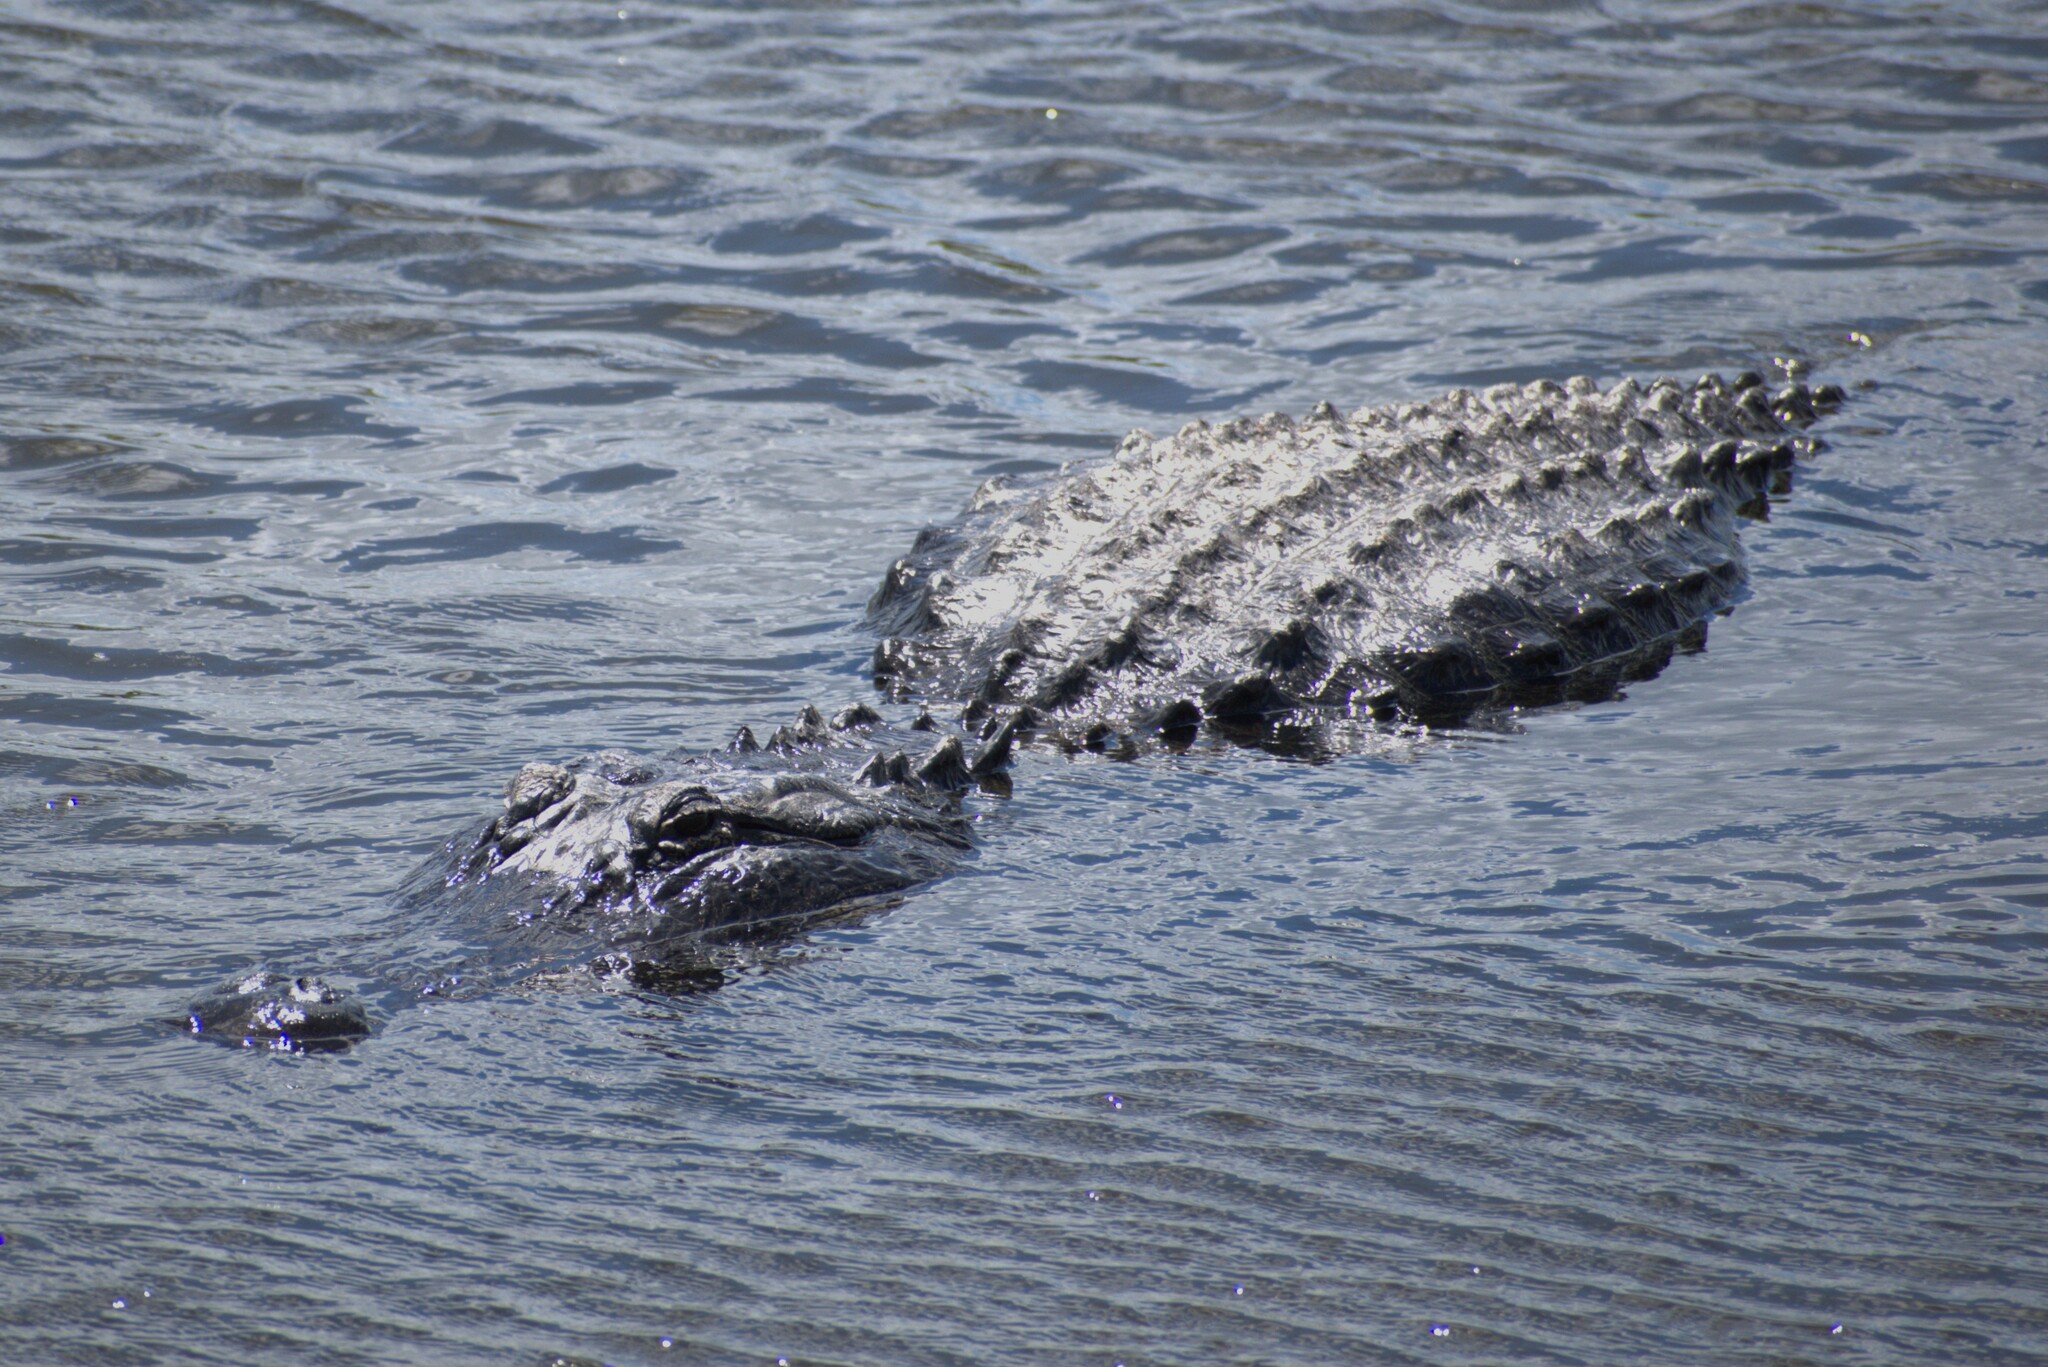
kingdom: Animalia
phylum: Chordata
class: Crocodylia
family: Alligatoridae
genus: Alligator
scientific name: Alligator mississippiensis
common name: American alligator
